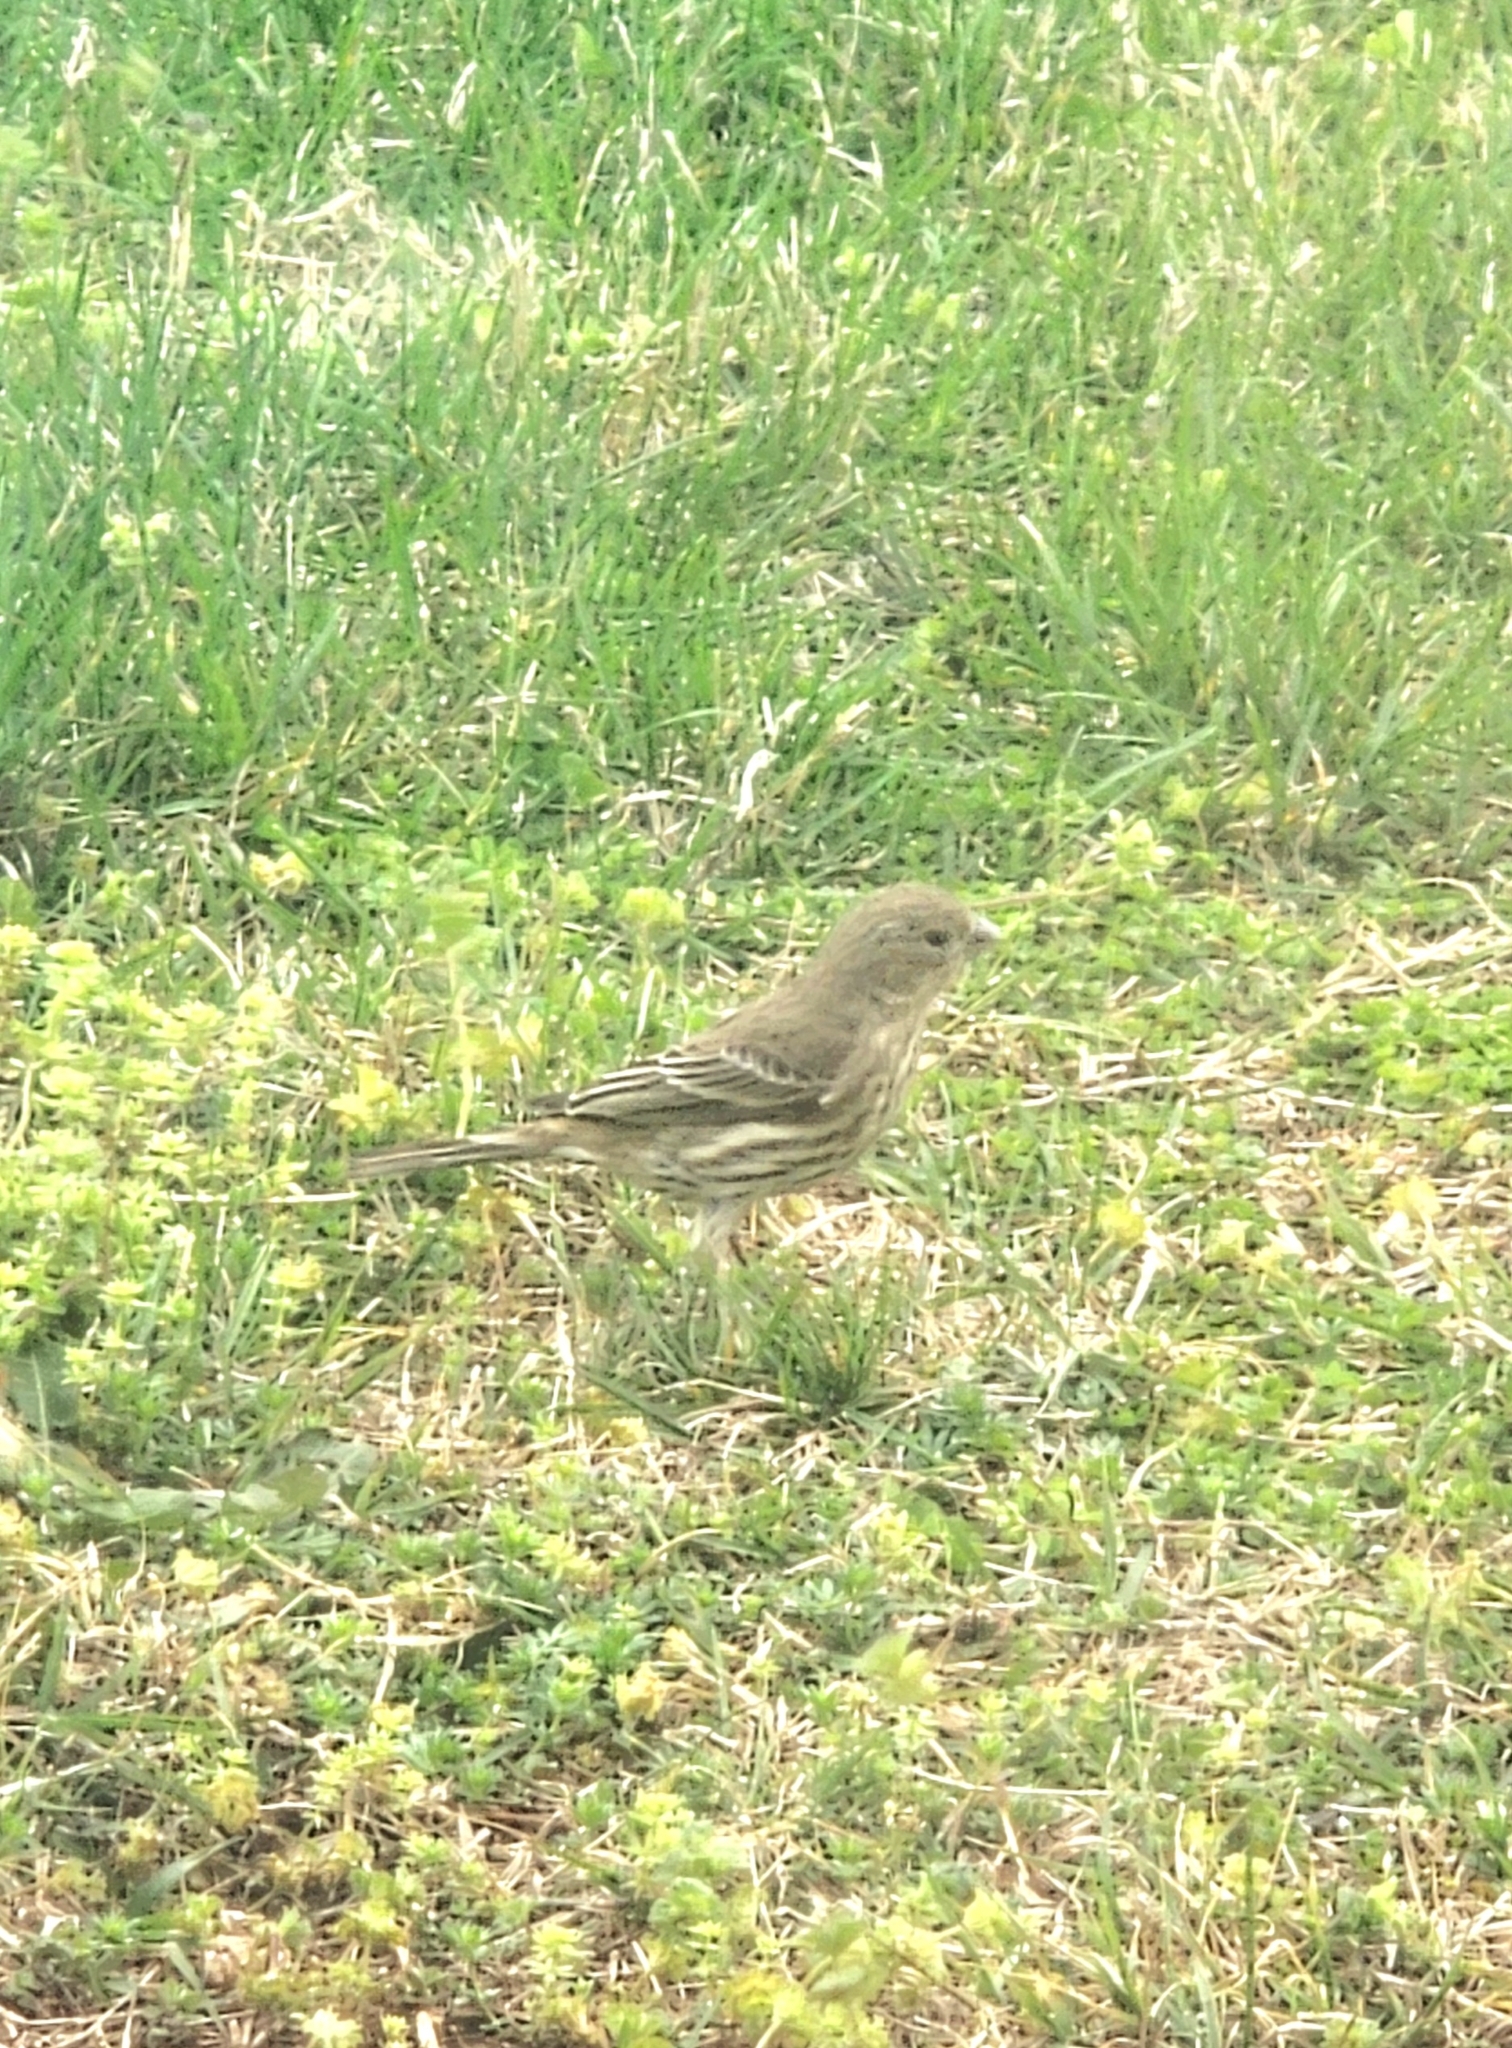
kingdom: Animalia
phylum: Chordata
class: Aves
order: Passeriformes
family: Fringillidae
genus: Haemorhous
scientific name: Haemorhous mexicanus
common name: House finch
